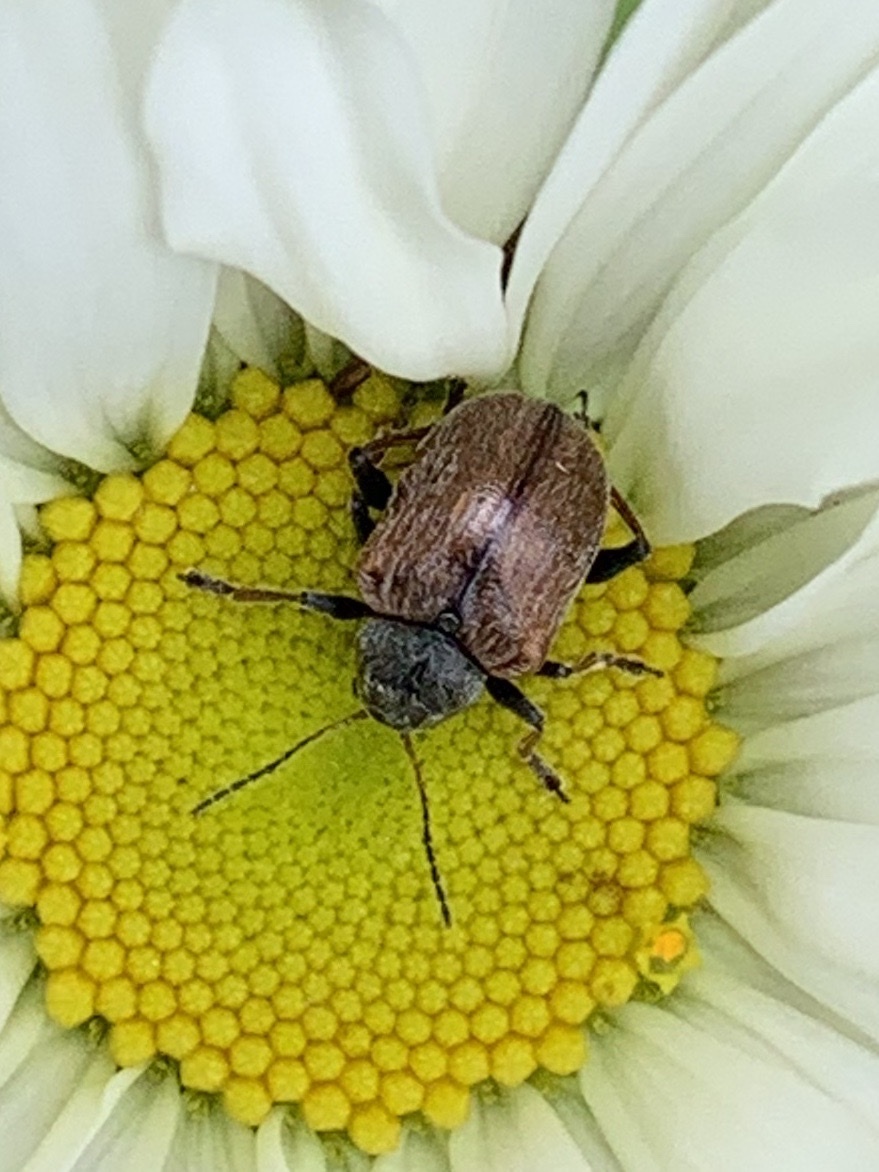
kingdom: Animalia
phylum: Arthropoda
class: Insecta
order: Coleoptera
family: Chrysomelidae
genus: Bromius
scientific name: Bromius obscurus
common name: Western grape rootworm
